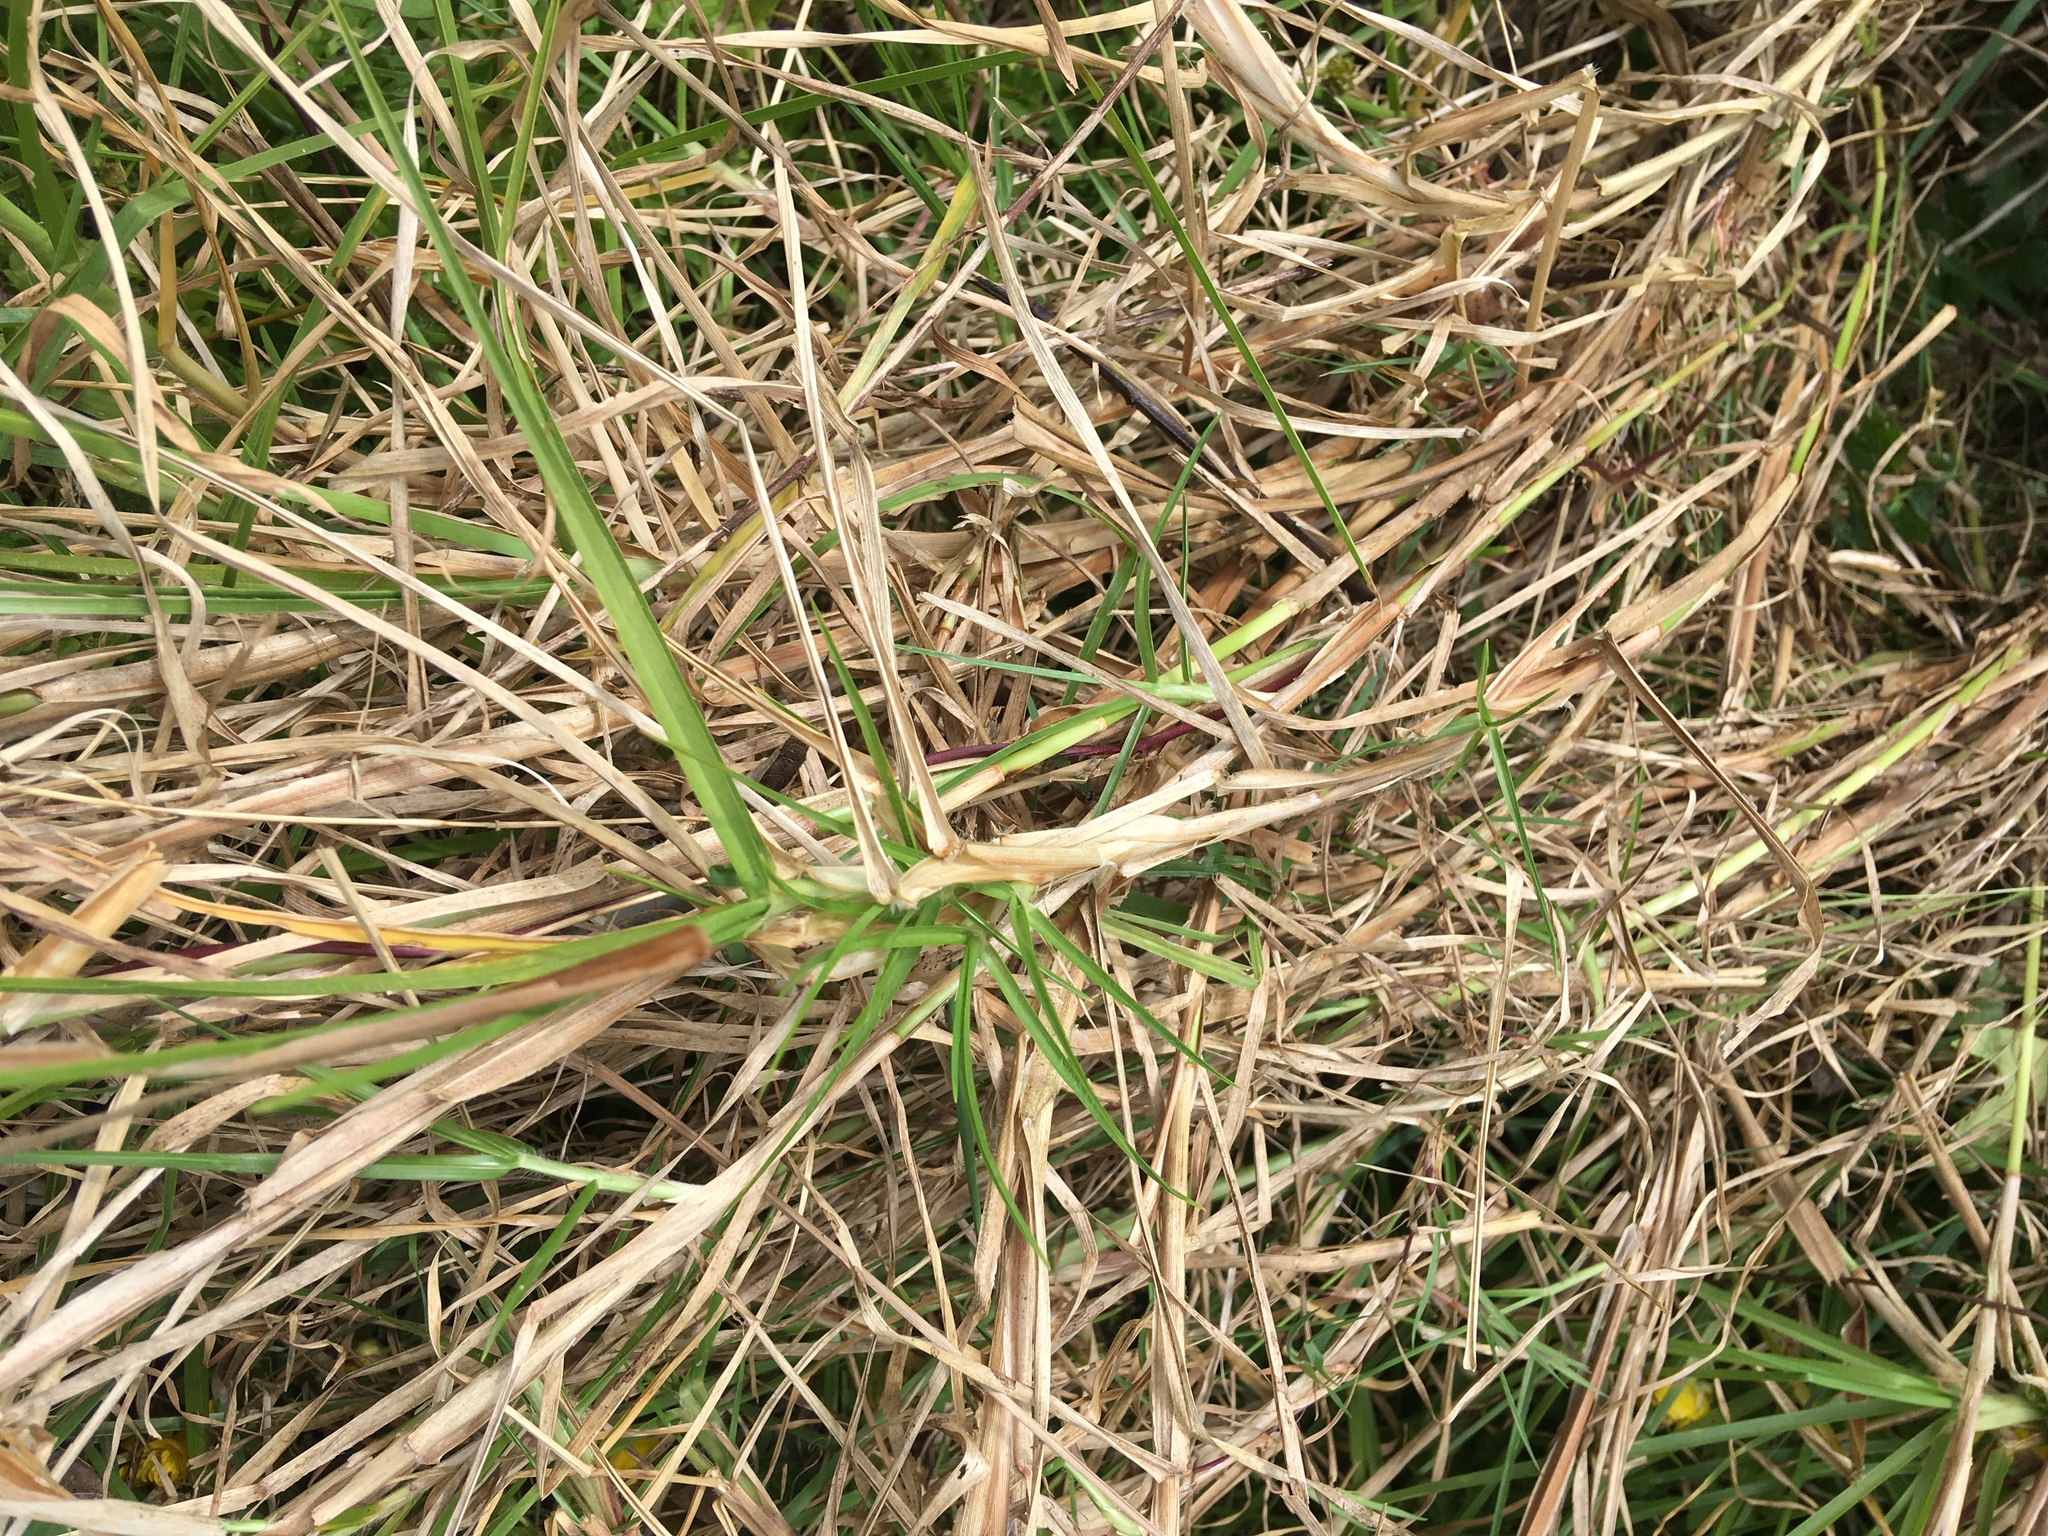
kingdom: Plantae
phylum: Tracheophyta
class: Liliopsida
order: Poales
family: Poaceae
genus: Cenchrus
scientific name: Cenchrus clandestinus
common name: Kikuyugrass
